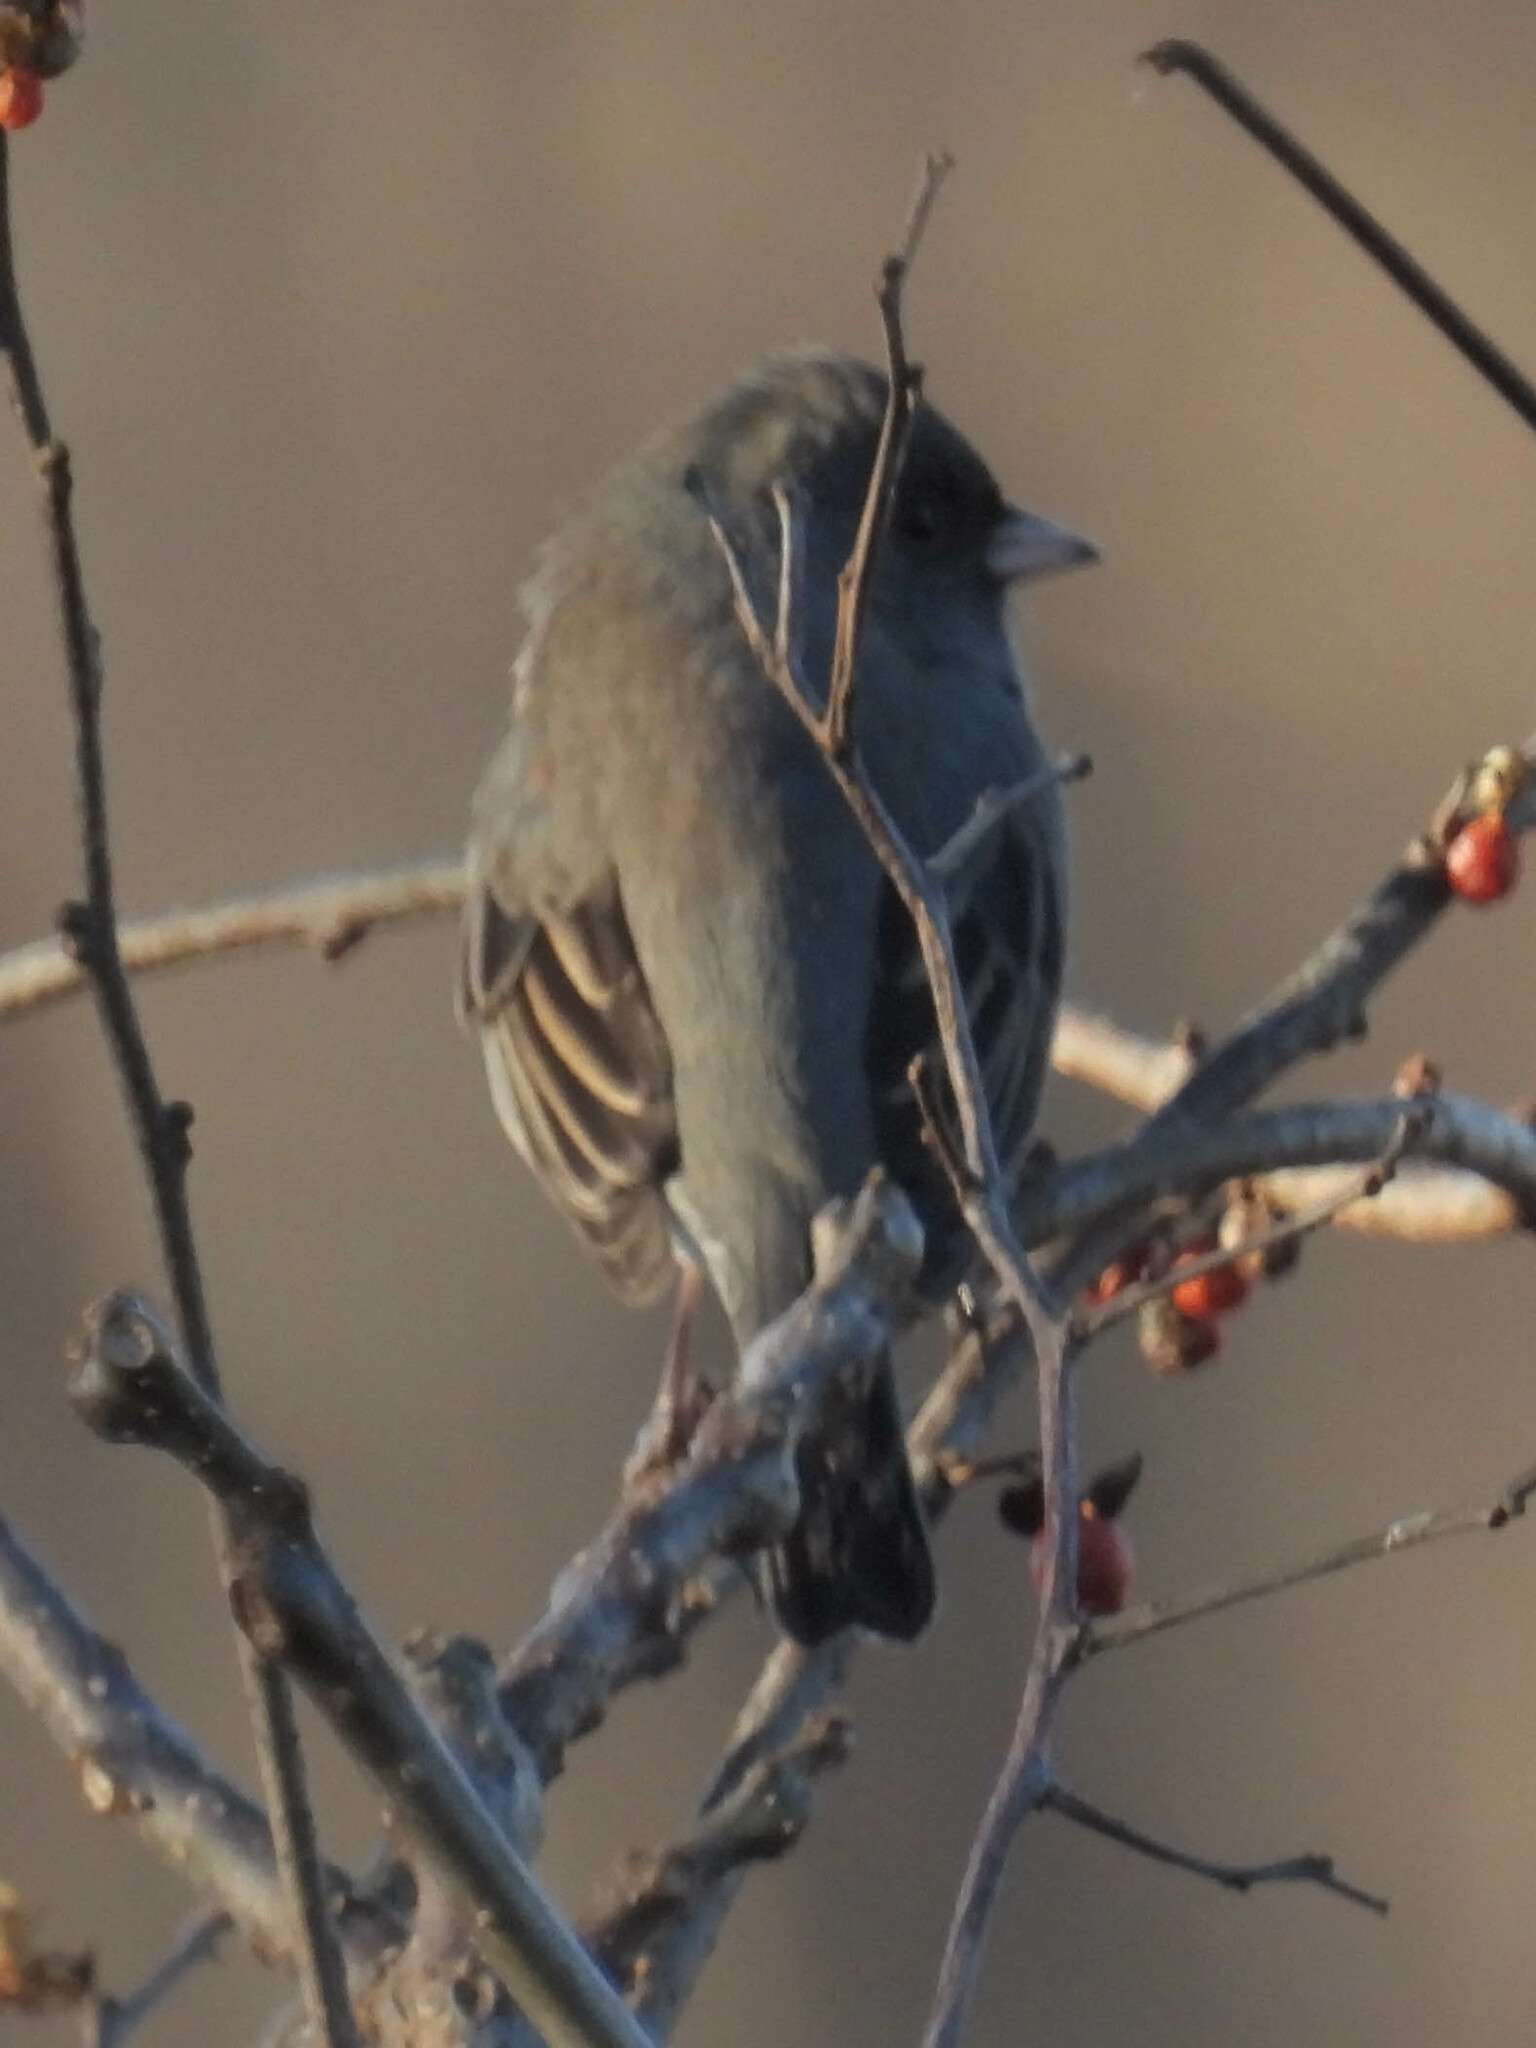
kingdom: Animalia
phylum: Chordata
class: Aves
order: Passeriformes
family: Passerellidae
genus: Junco
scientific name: Junco hyemalis
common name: Dark-eyed junco
